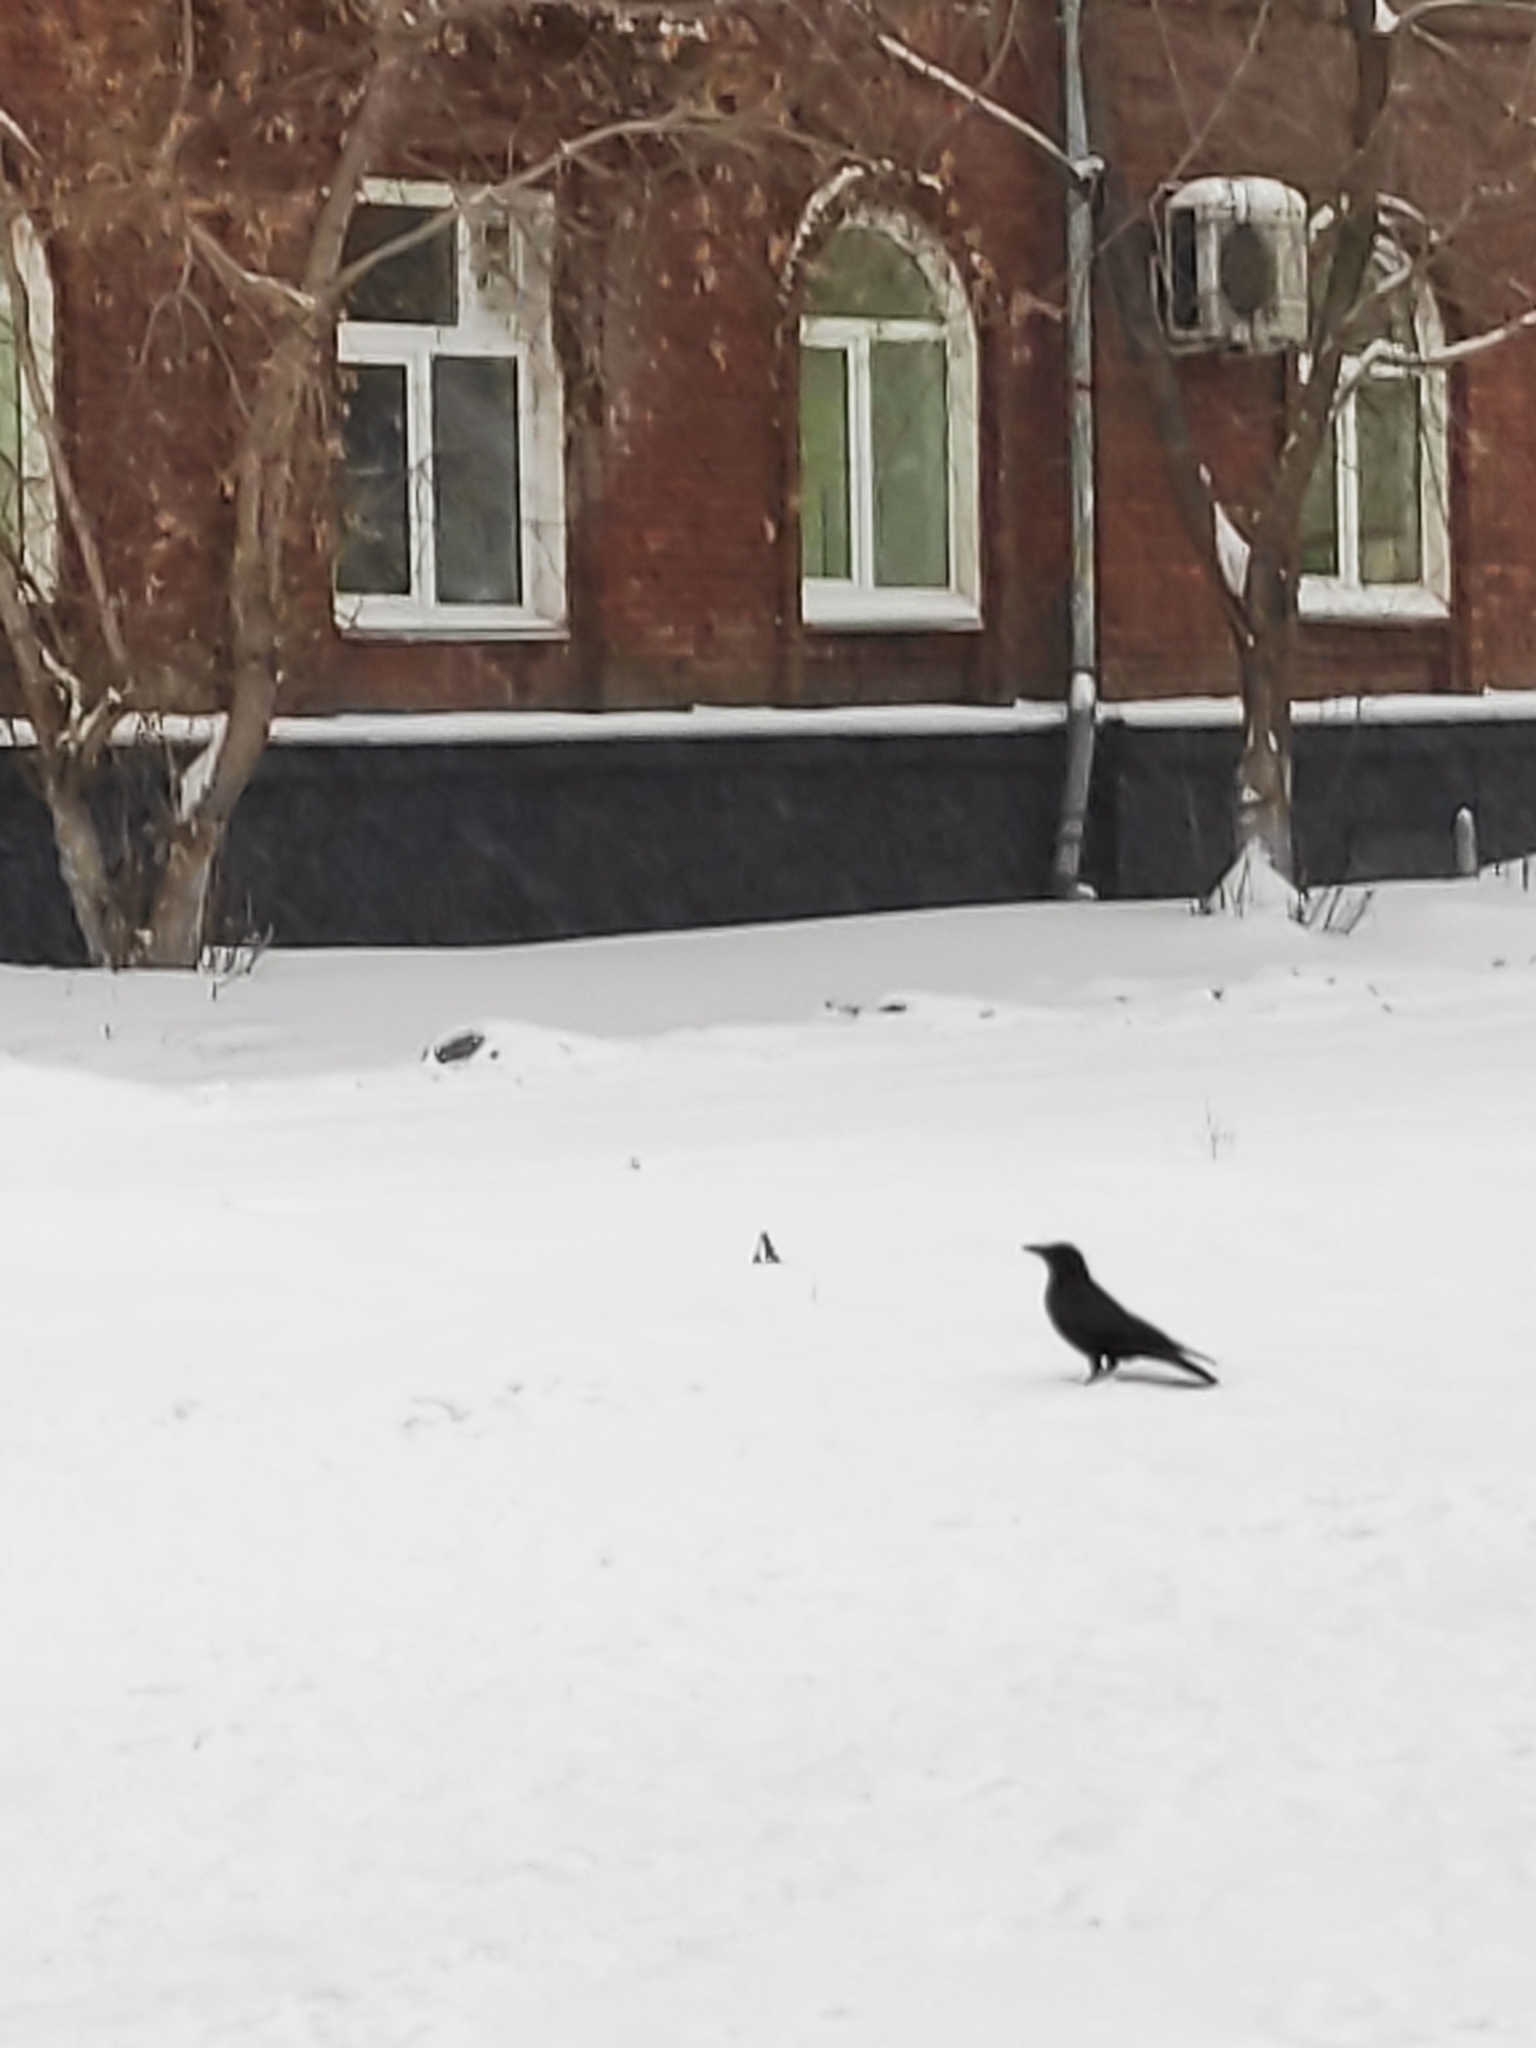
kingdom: Animalia
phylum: Chordata
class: Aves
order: Passeriformes
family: Corvidae
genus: Corvus
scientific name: Corvus corone
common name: Carrion crow
